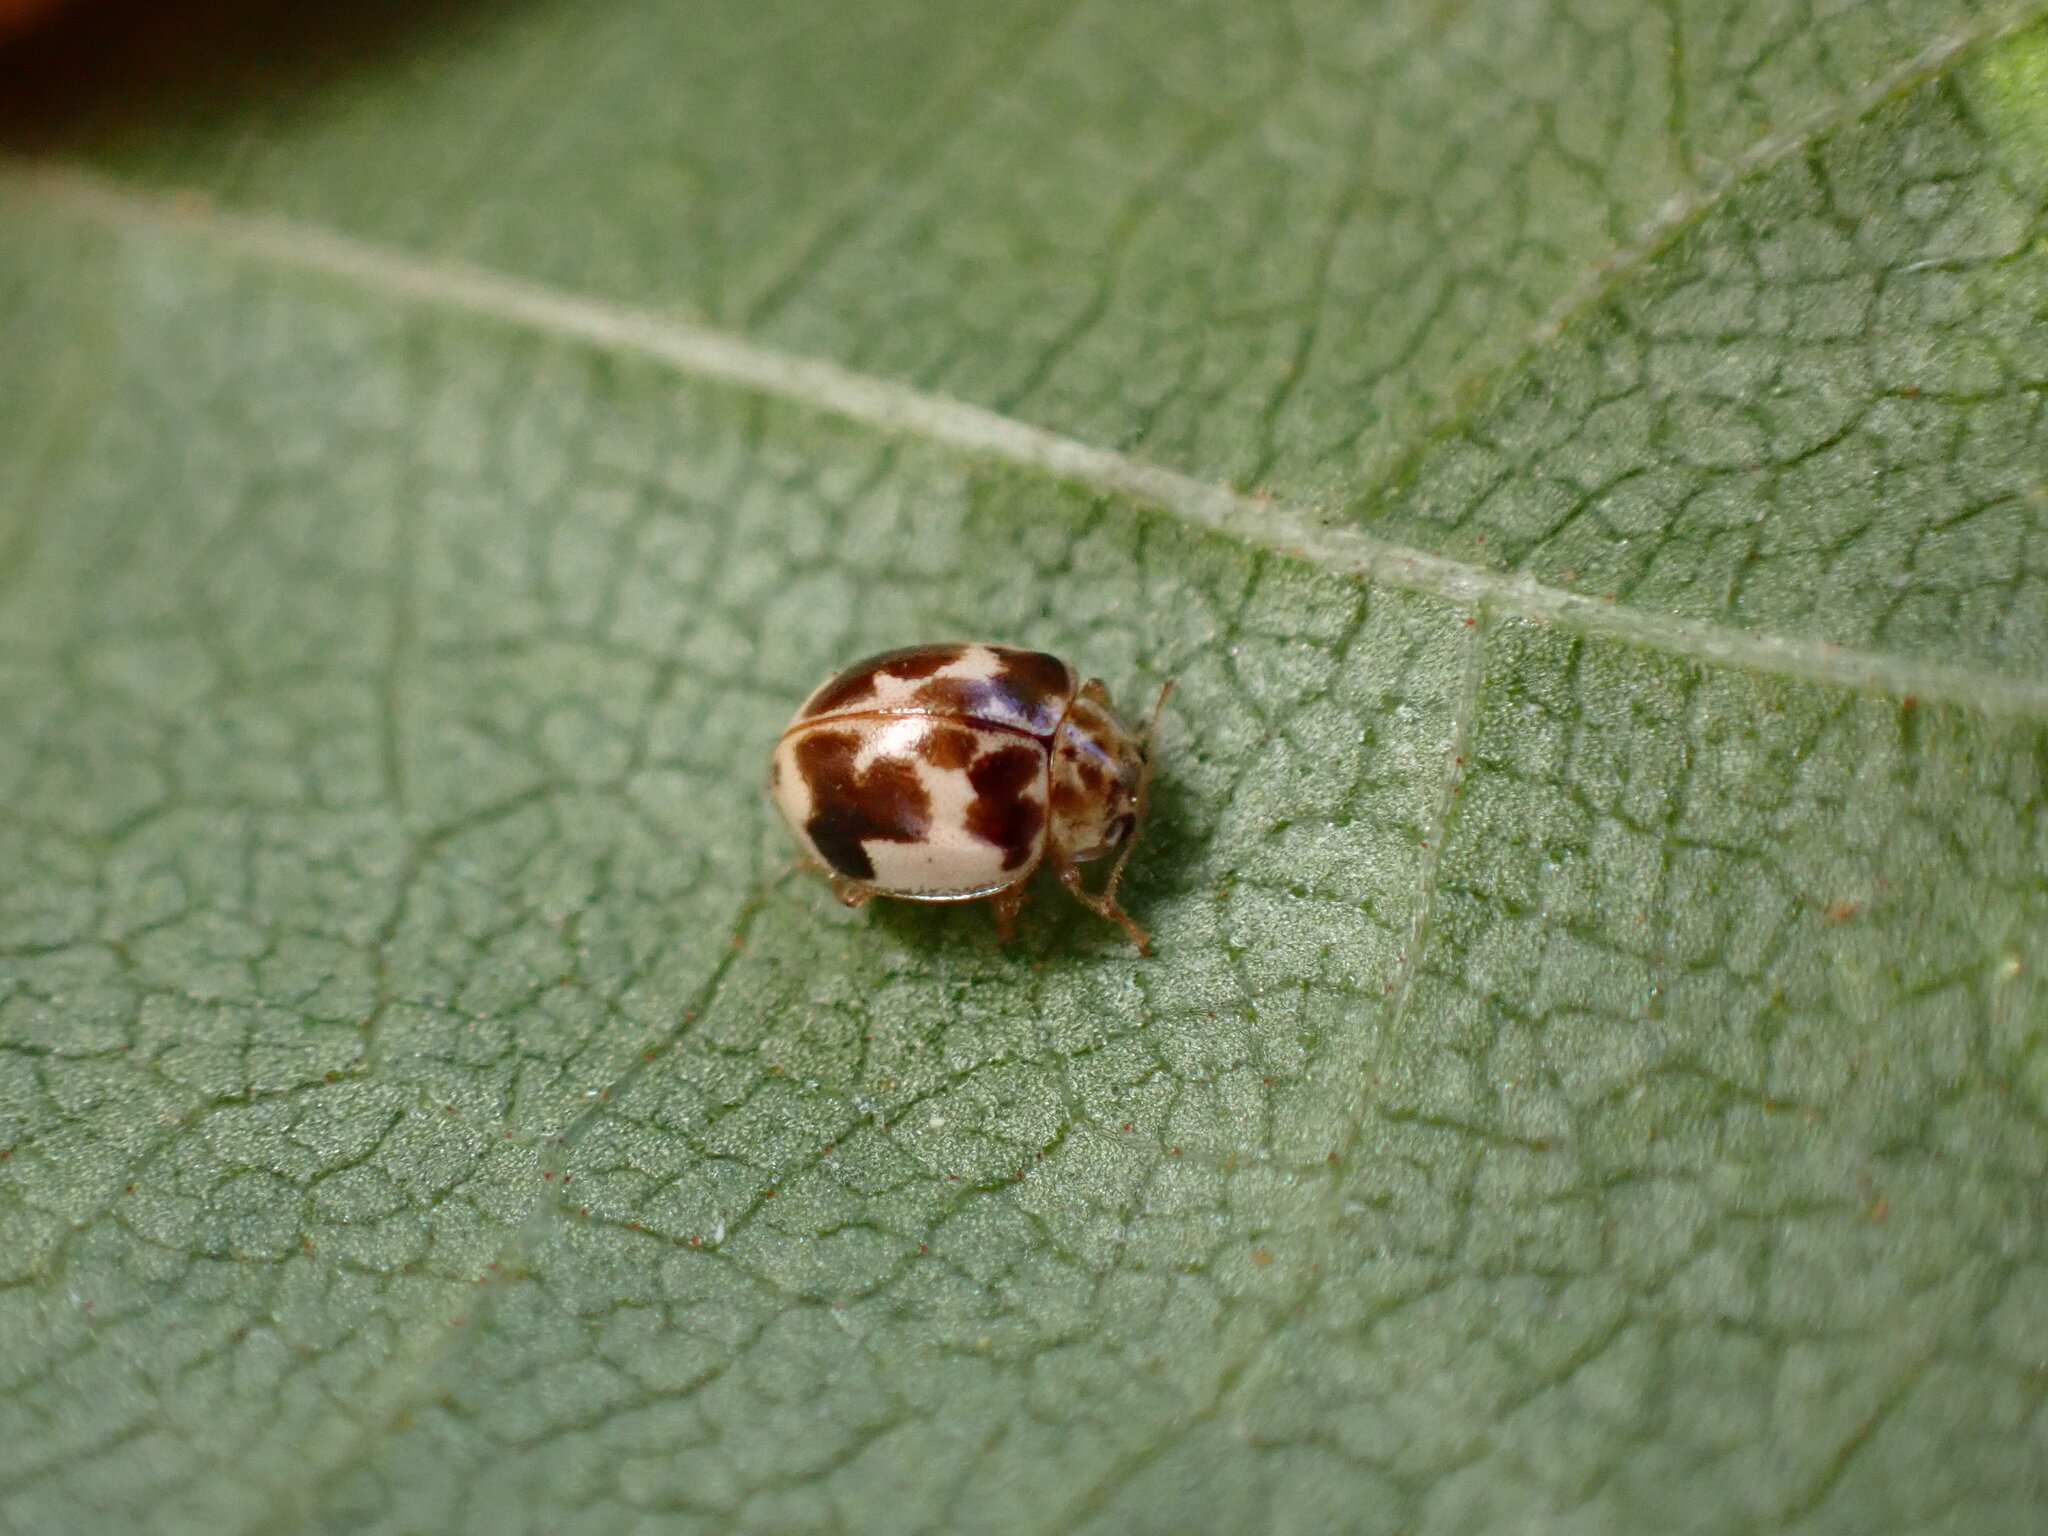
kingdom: Animalia
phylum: Arthropoda
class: Insecta
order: Coleoptera
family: Coccinellidae
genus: Psyllobora
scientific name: Psyllobora vigintimaculata
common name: Ladybird beetle
